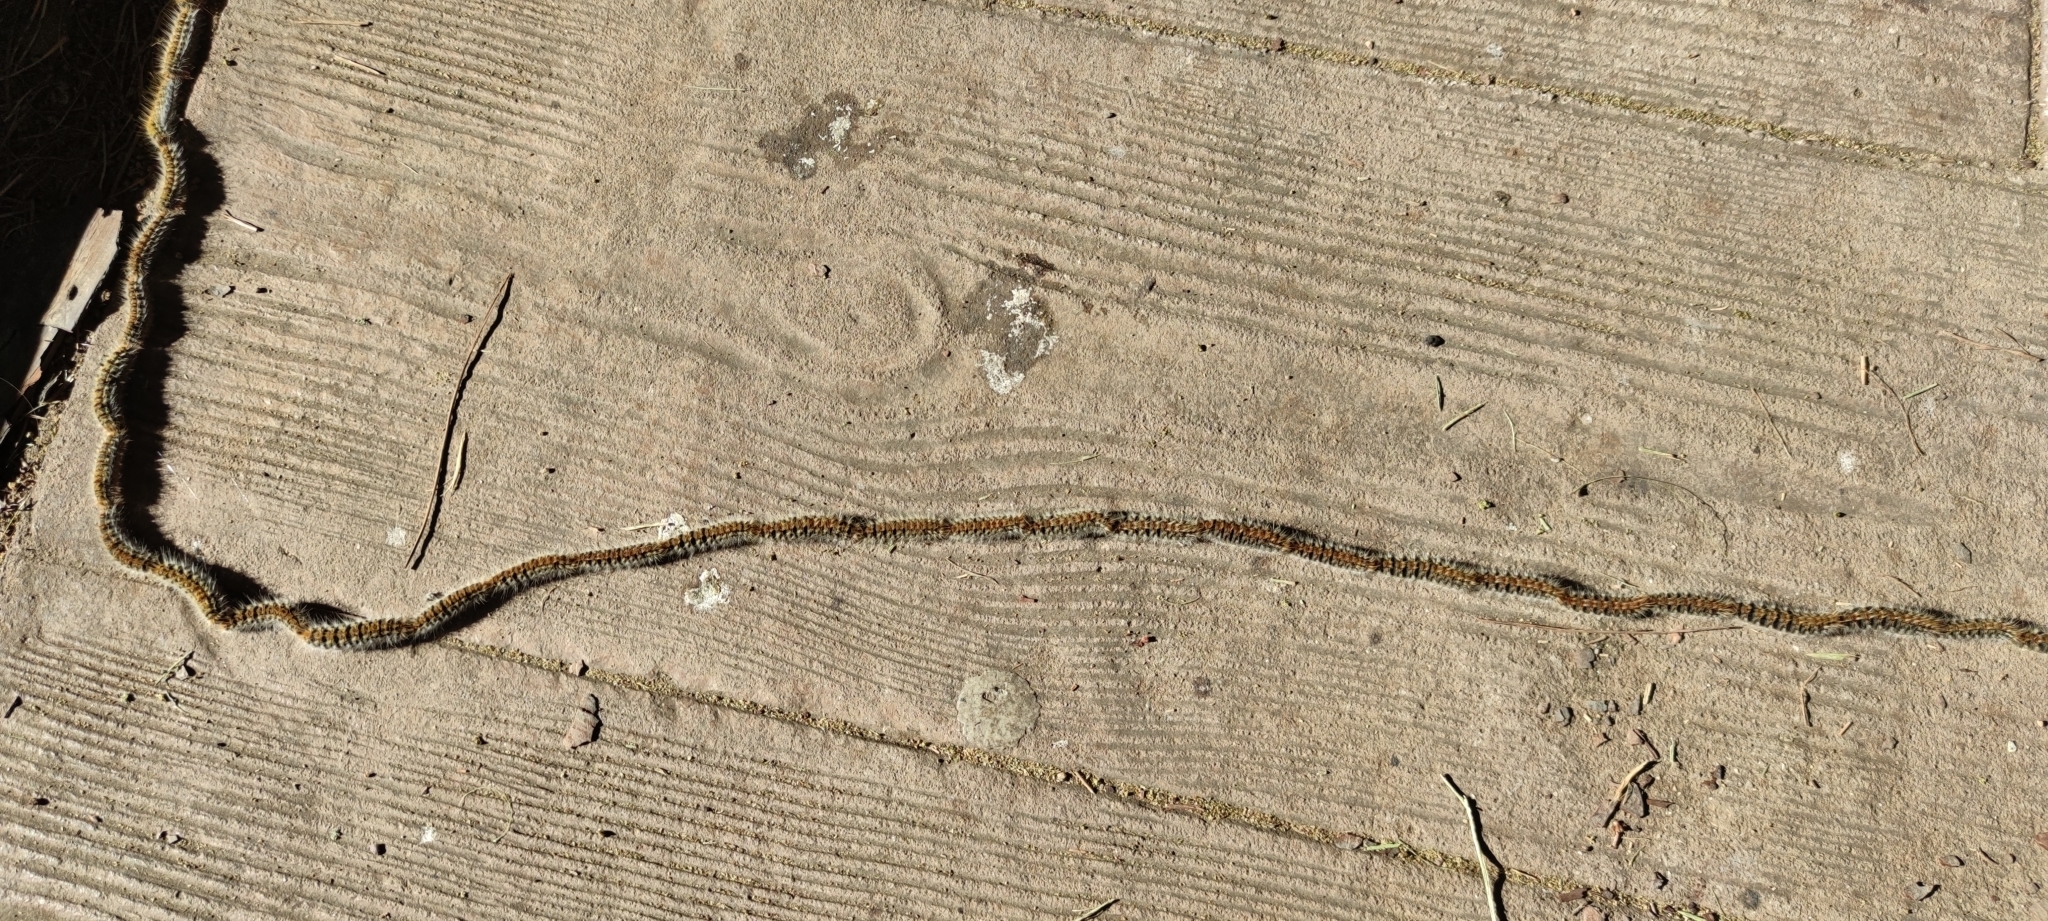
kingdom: Animalia
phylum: Arthropoda
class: Insecta
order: Lepidoptera
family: Notodontidae
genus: Thaumetopoea
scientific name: Thaumetopoea pityocampa
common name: Pine processionary
